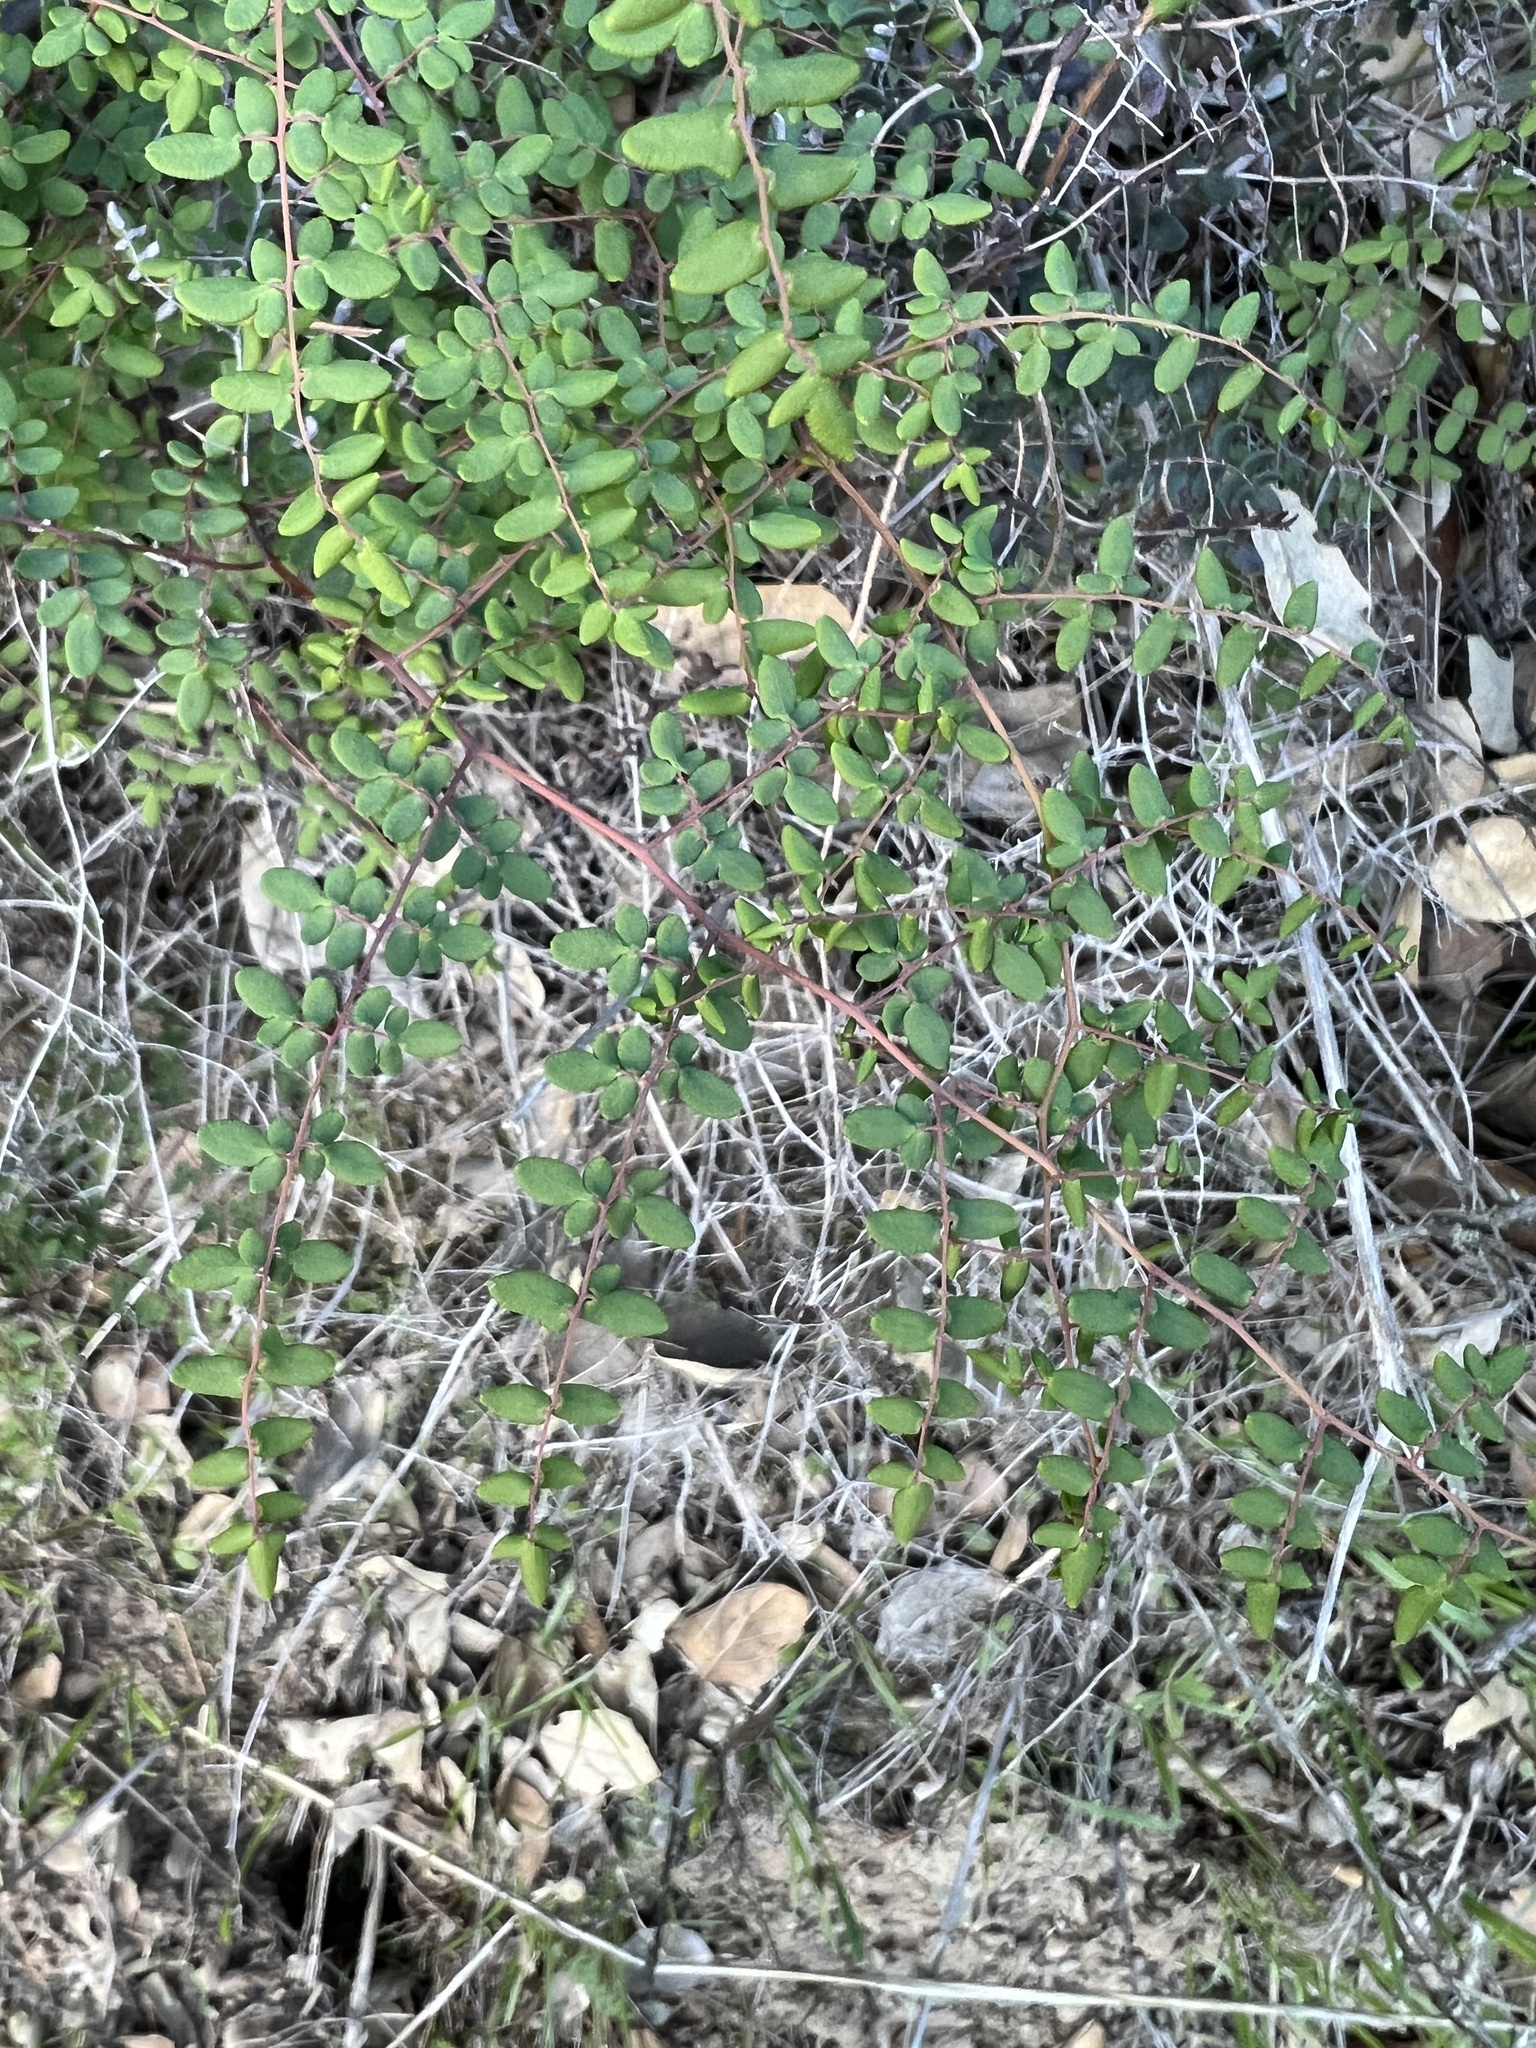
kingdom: Plantae
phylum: Tracheophyta
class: Polypodiopsida
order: Polypodiales
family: Pteridaceae
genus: Pellaea
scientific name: Pellaea andromedifolia
